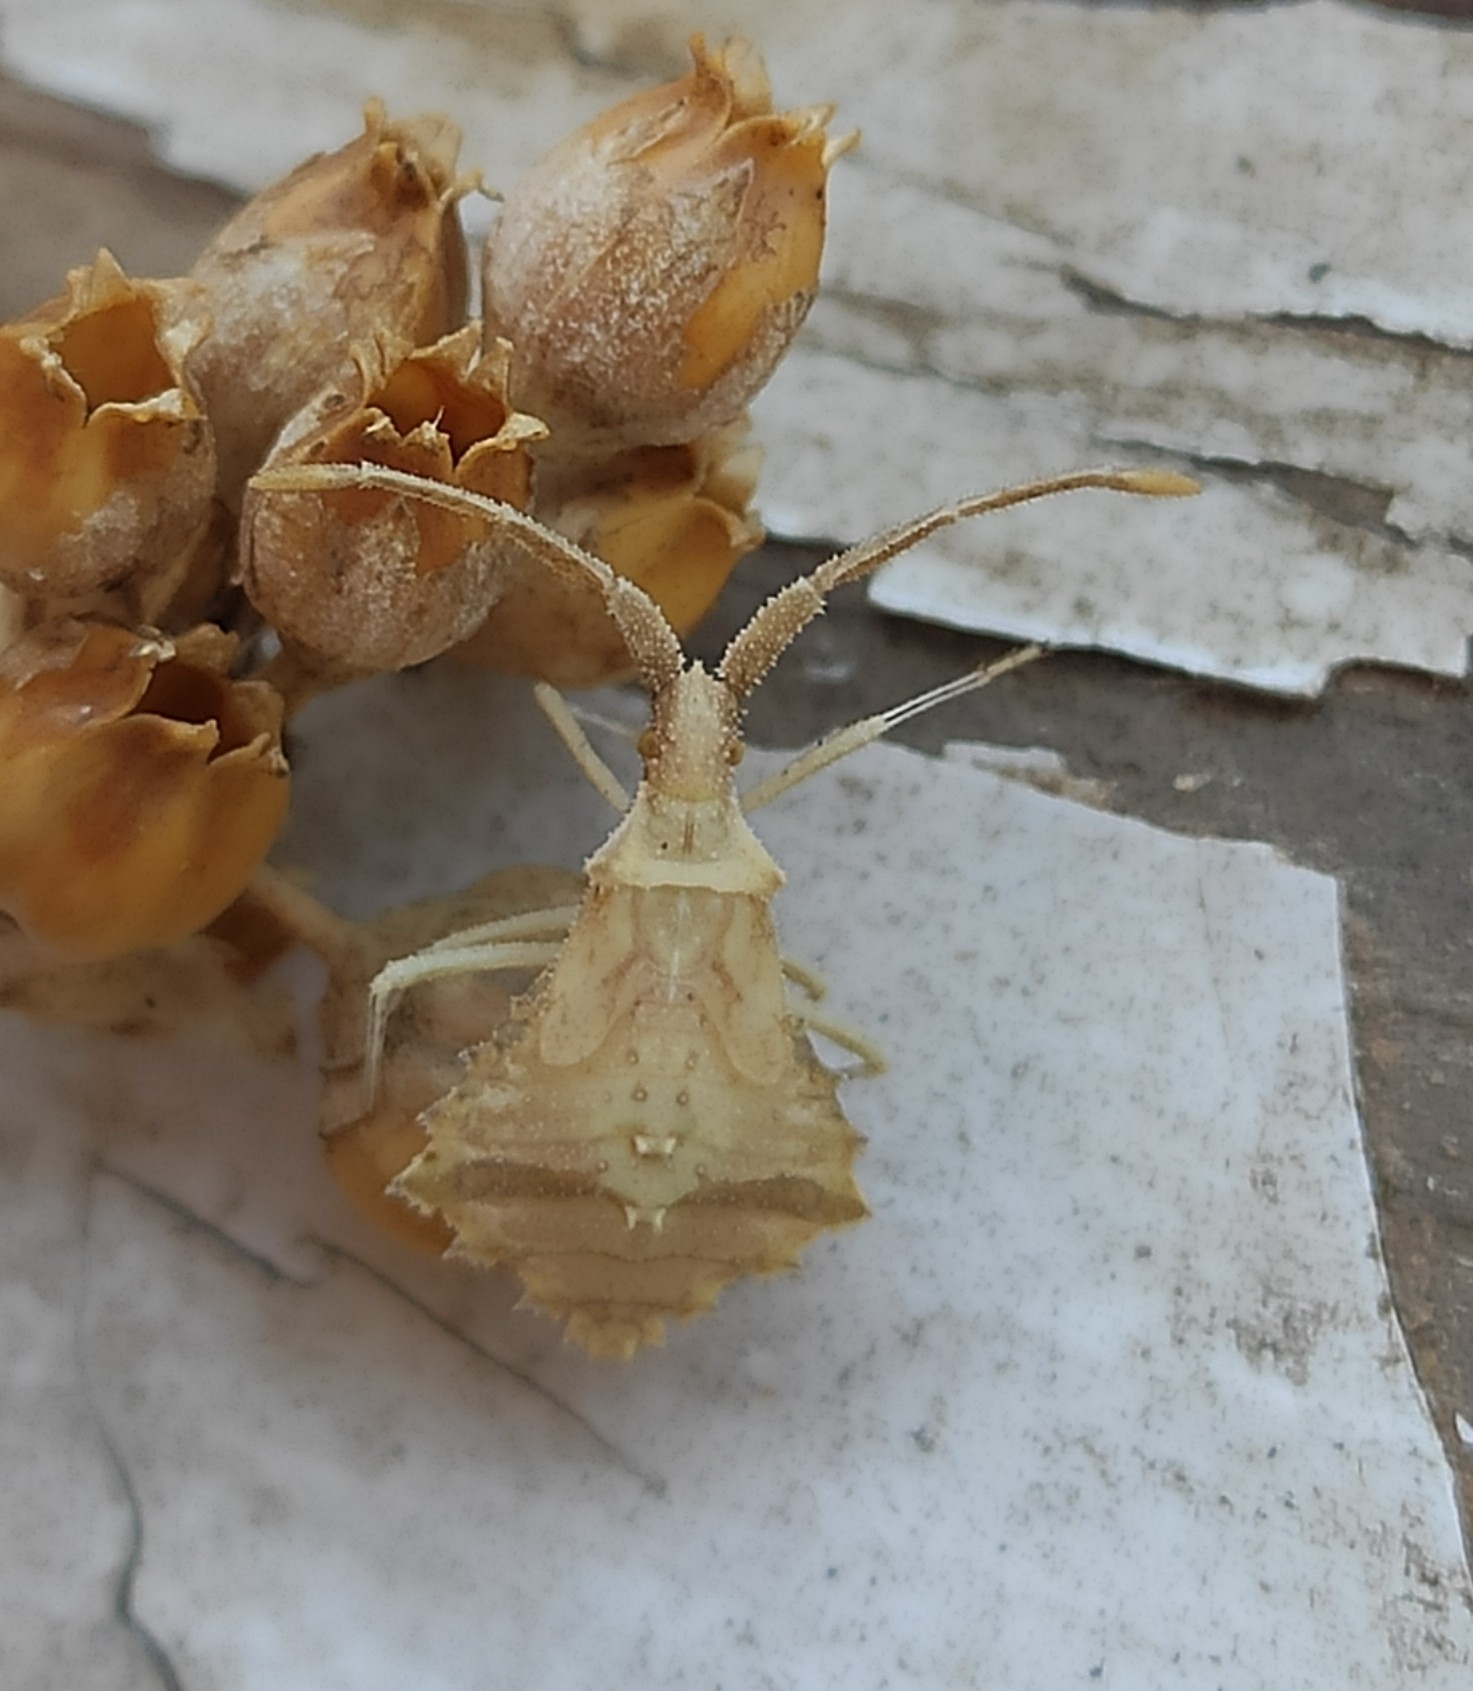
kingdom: Animalia
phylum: Arthropoda
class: Insecta
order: Hemiptera
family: Coreidae
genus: Syromastus
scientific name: Syromastus rhombeus
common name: Rhombic leatherbug
